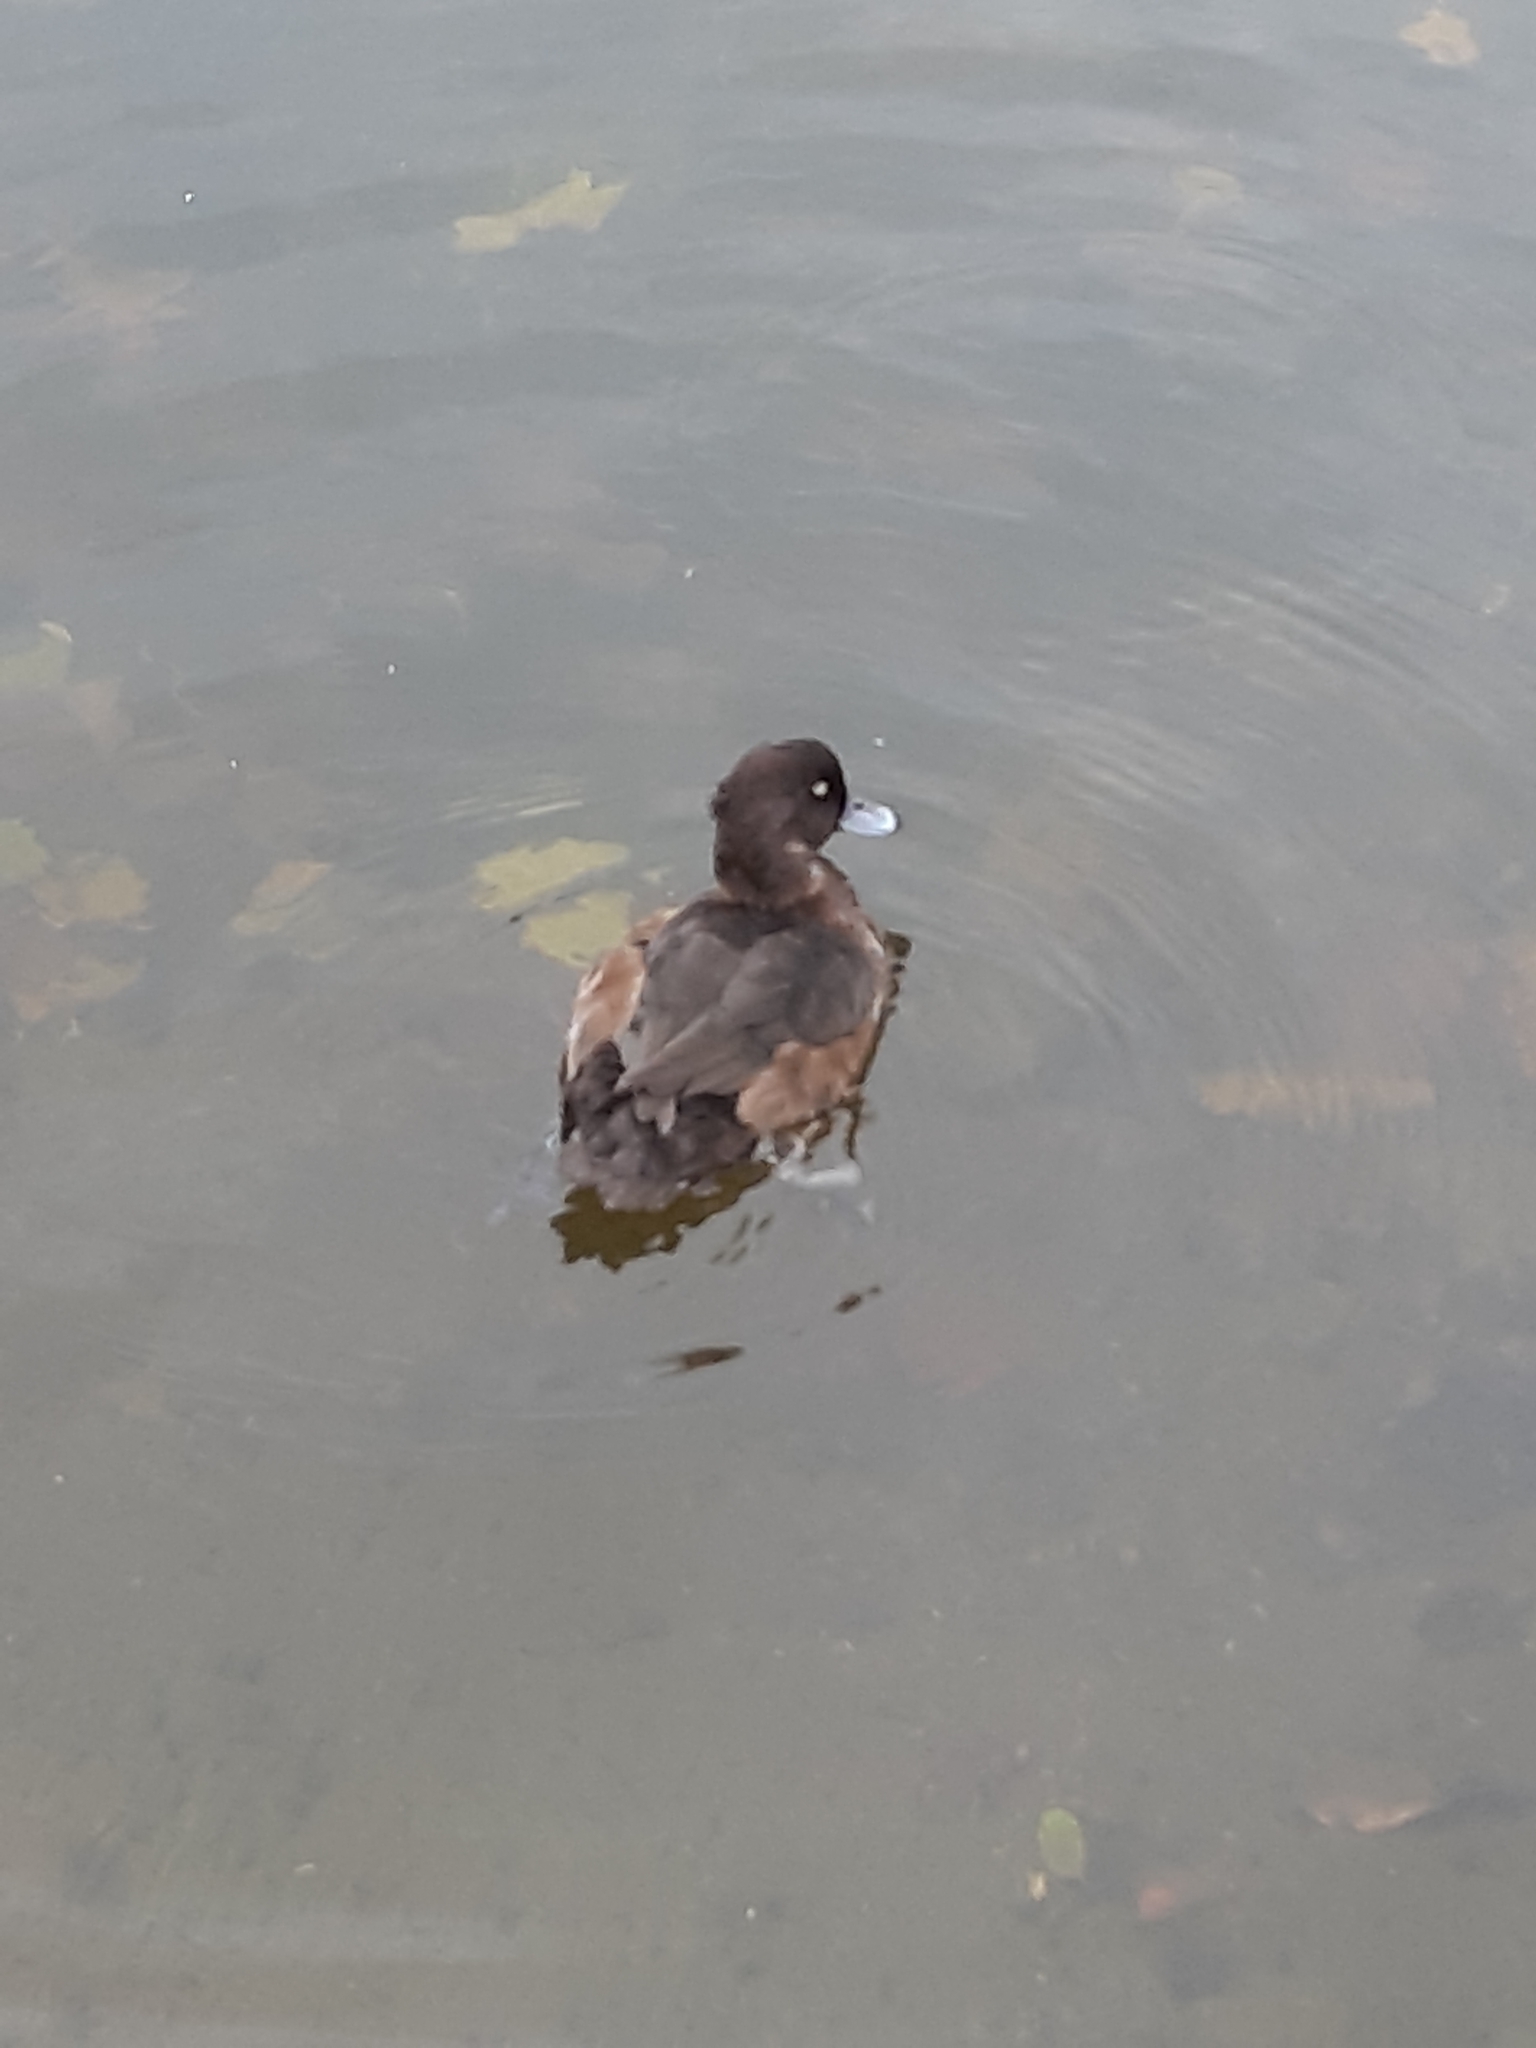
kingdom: Animalia
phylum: Chordata
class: Aves
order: Anseriformes
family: Anatidae
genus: Aythya
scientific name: Aythya fuligula
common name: Tufted duck
